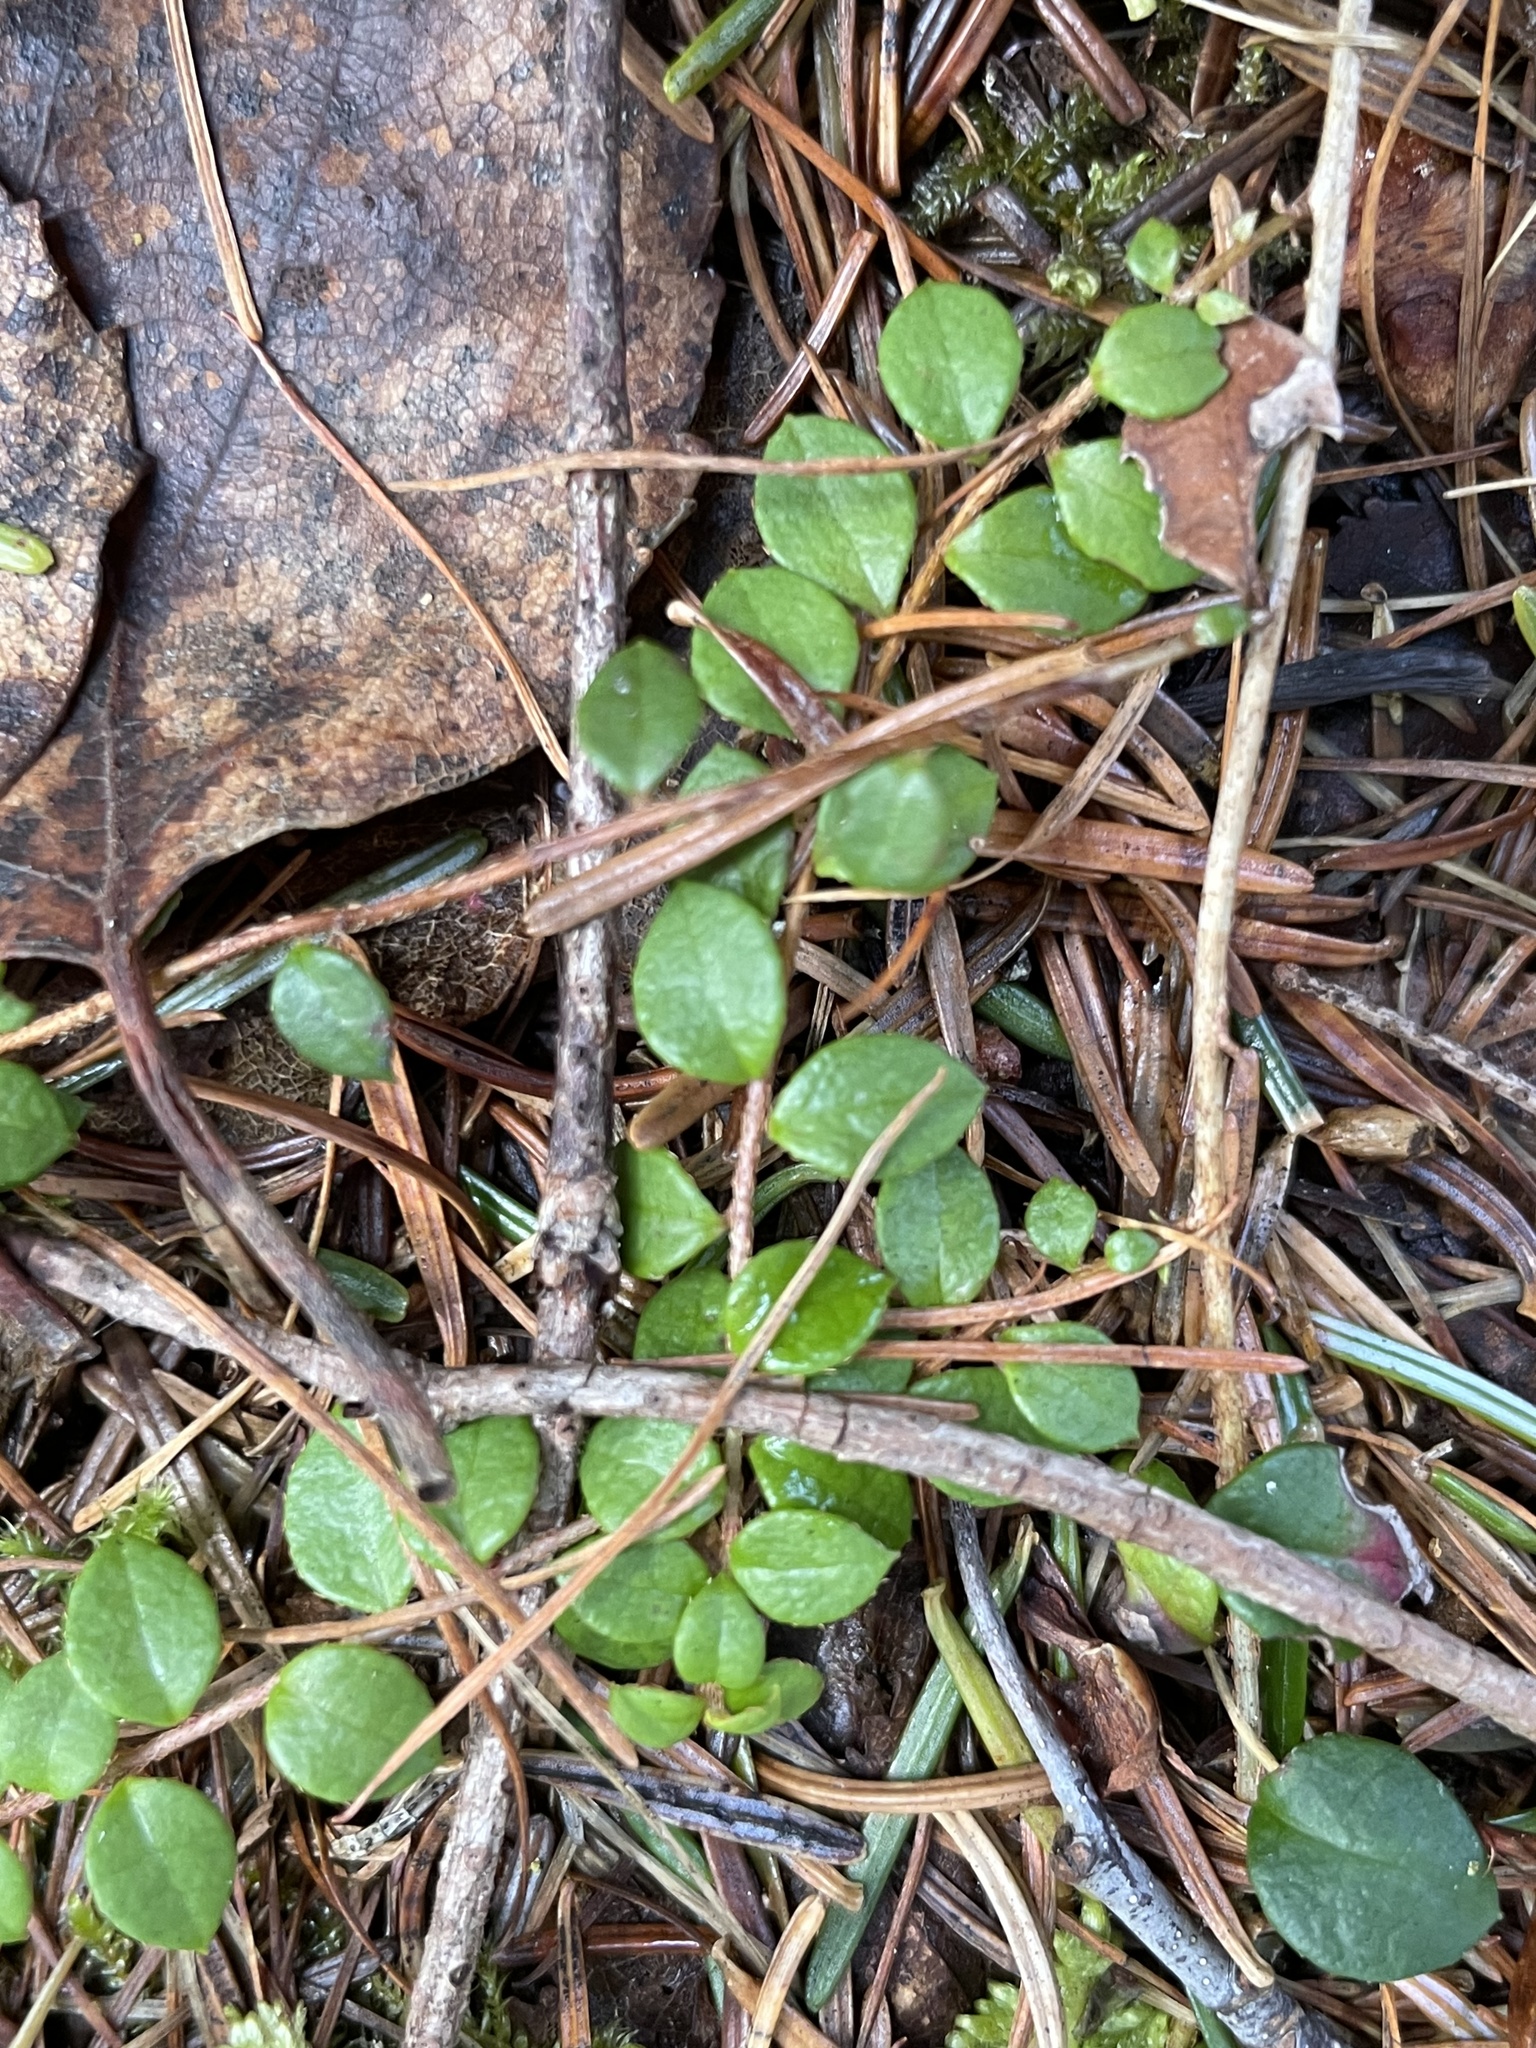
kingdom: Plantae
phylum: Tracheophyta
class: Magnoliopsida
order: Ericales
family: Ericaceae
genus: Gaultheria
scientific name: Gaultheria hispidula
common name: Cancer wintergreen
